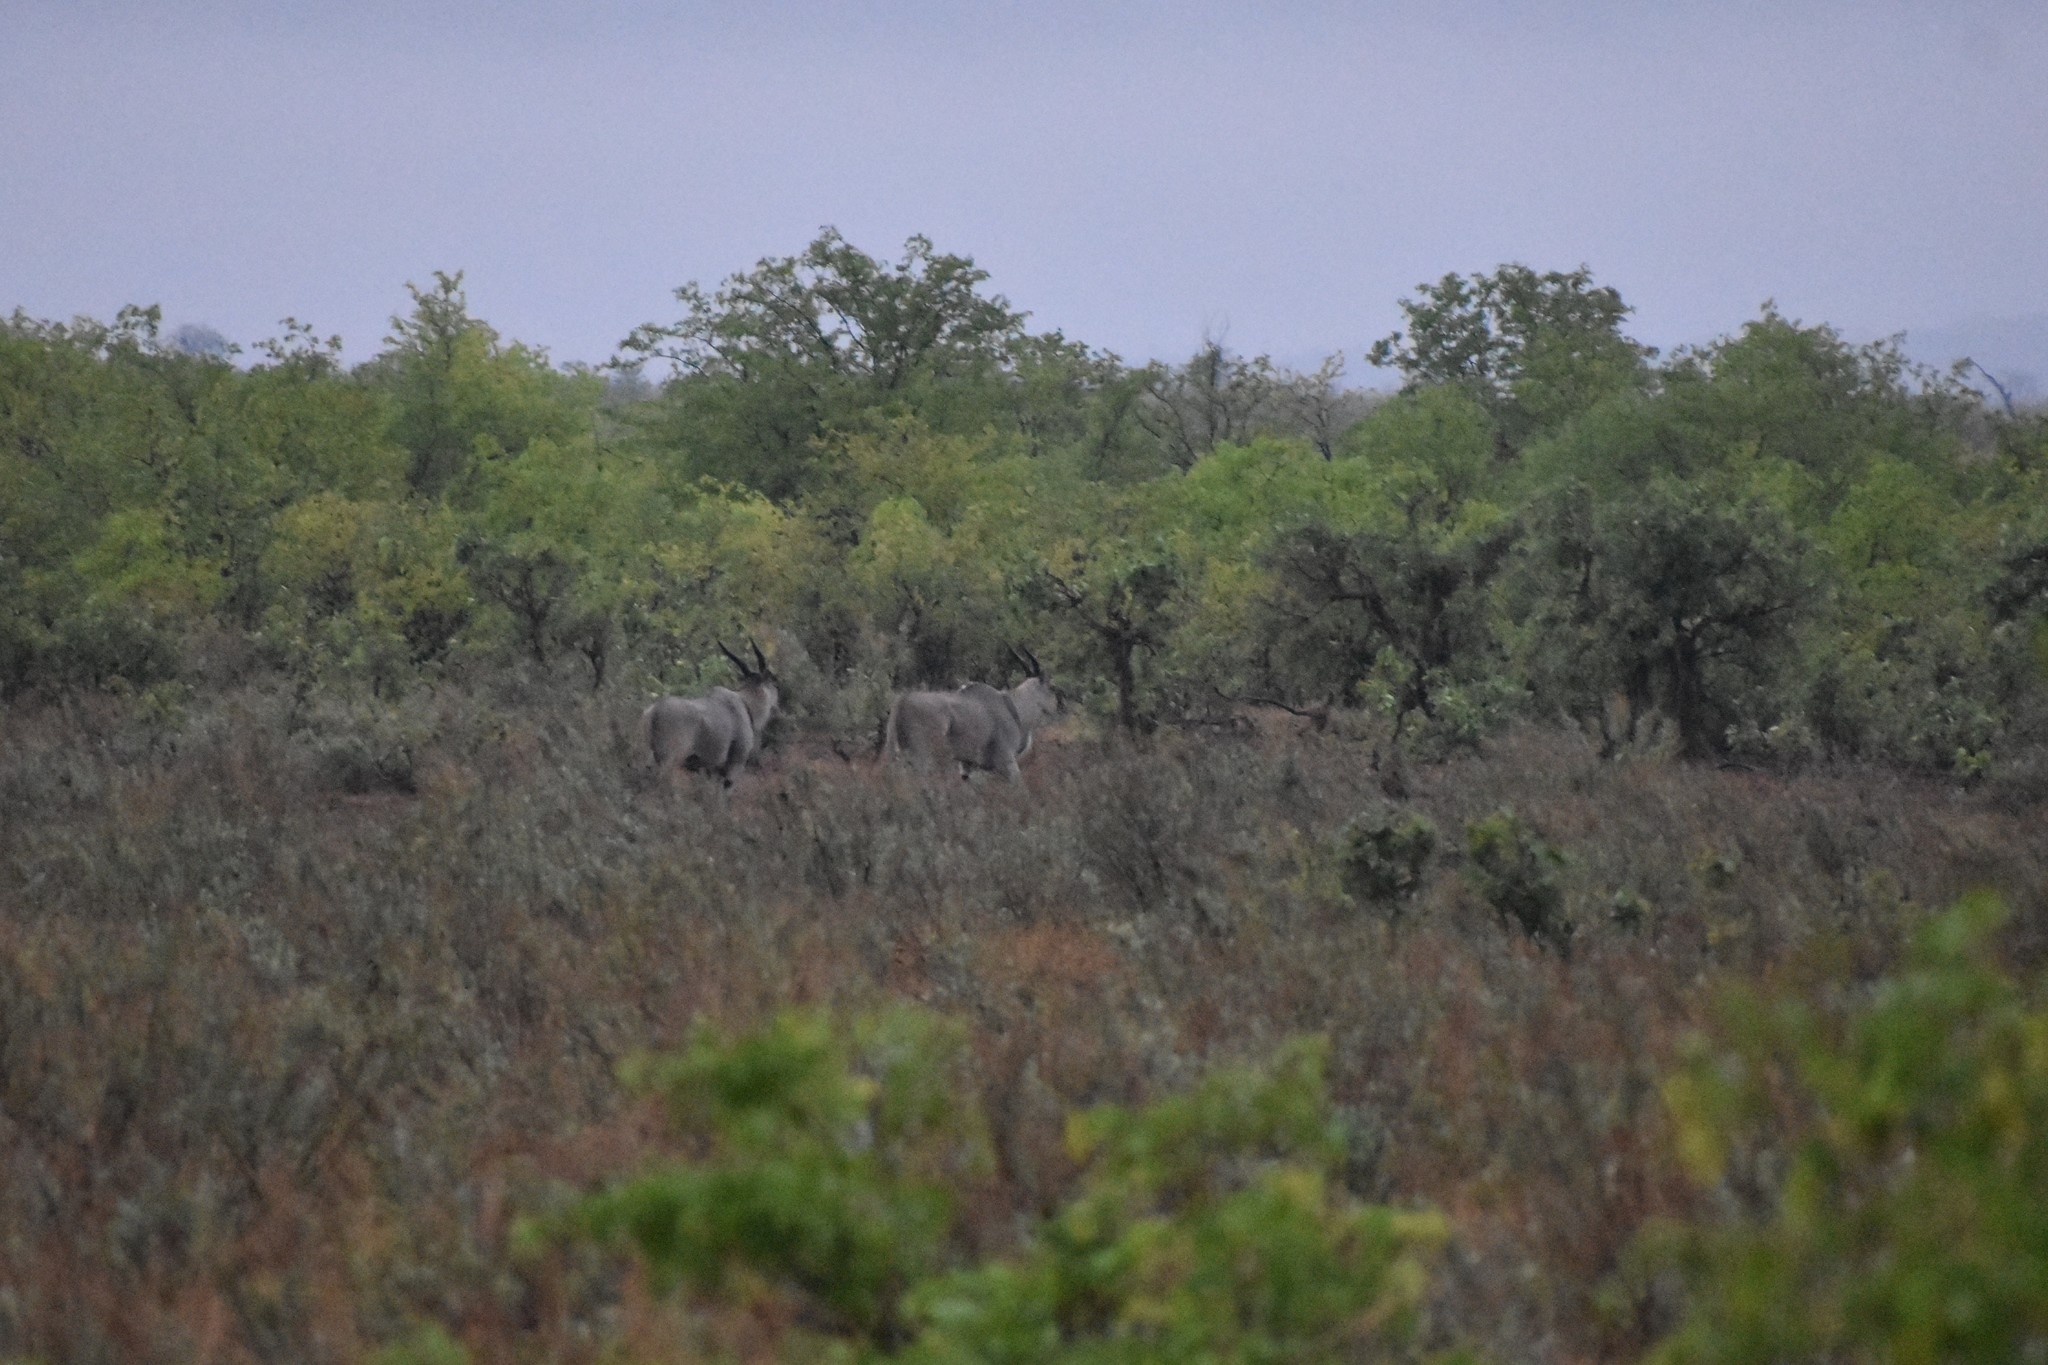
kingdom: Animalia
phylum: Chordata
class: Mammalia
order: Artiodactyla
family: Bovidae
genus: Taurotragus
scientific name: Taurotragus oryx
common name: Common eland
